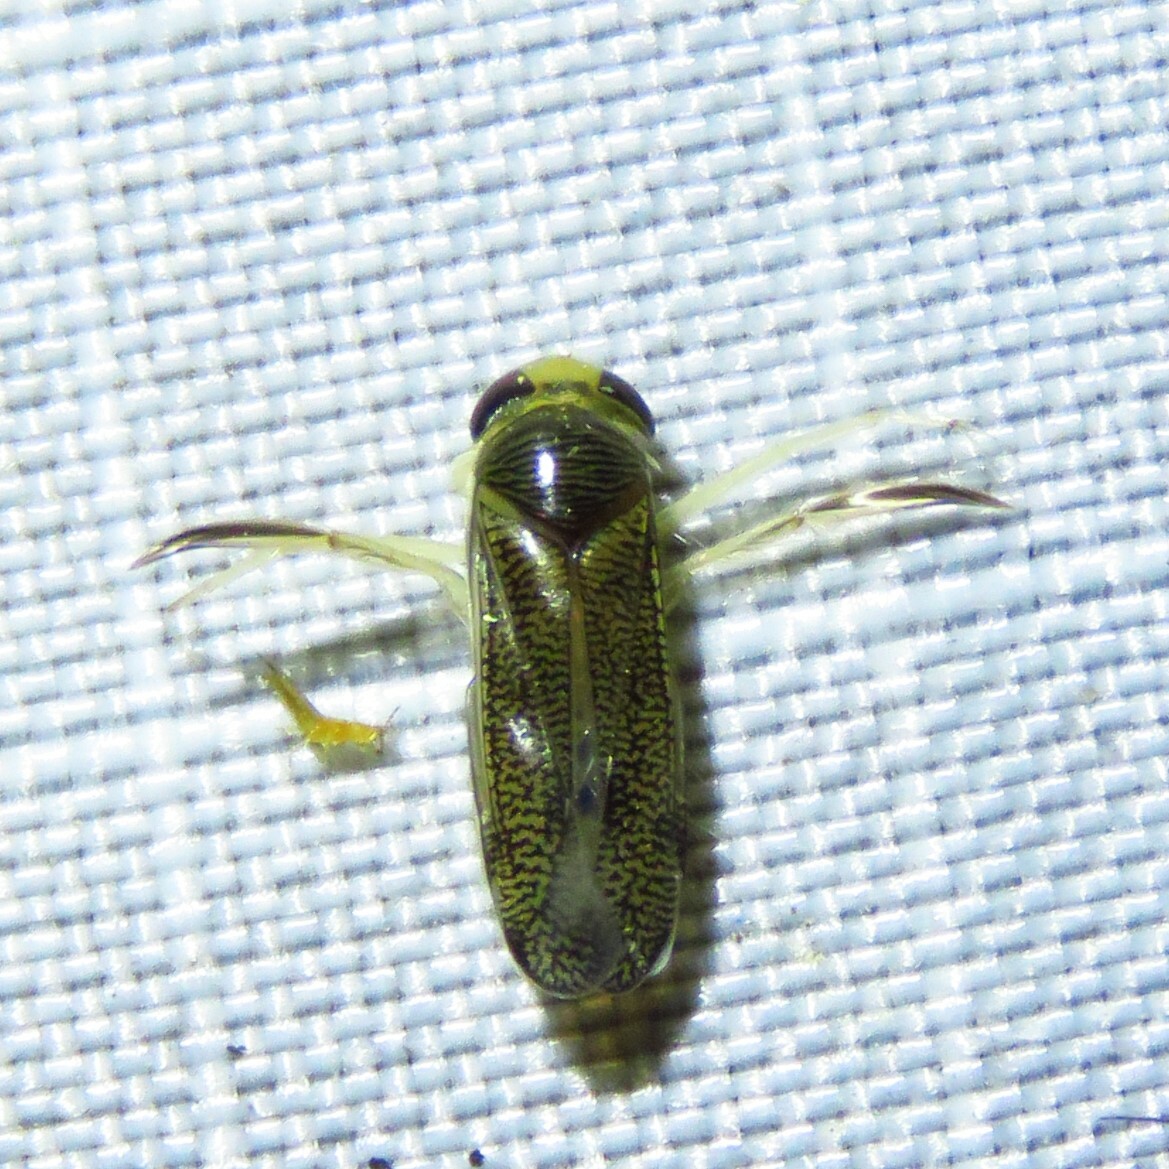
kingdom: Animalia
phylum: Arthropoda
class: Insecta
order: Hemiptera
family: Corixidae
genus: Trichocorixa
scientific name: Trichocorixa
